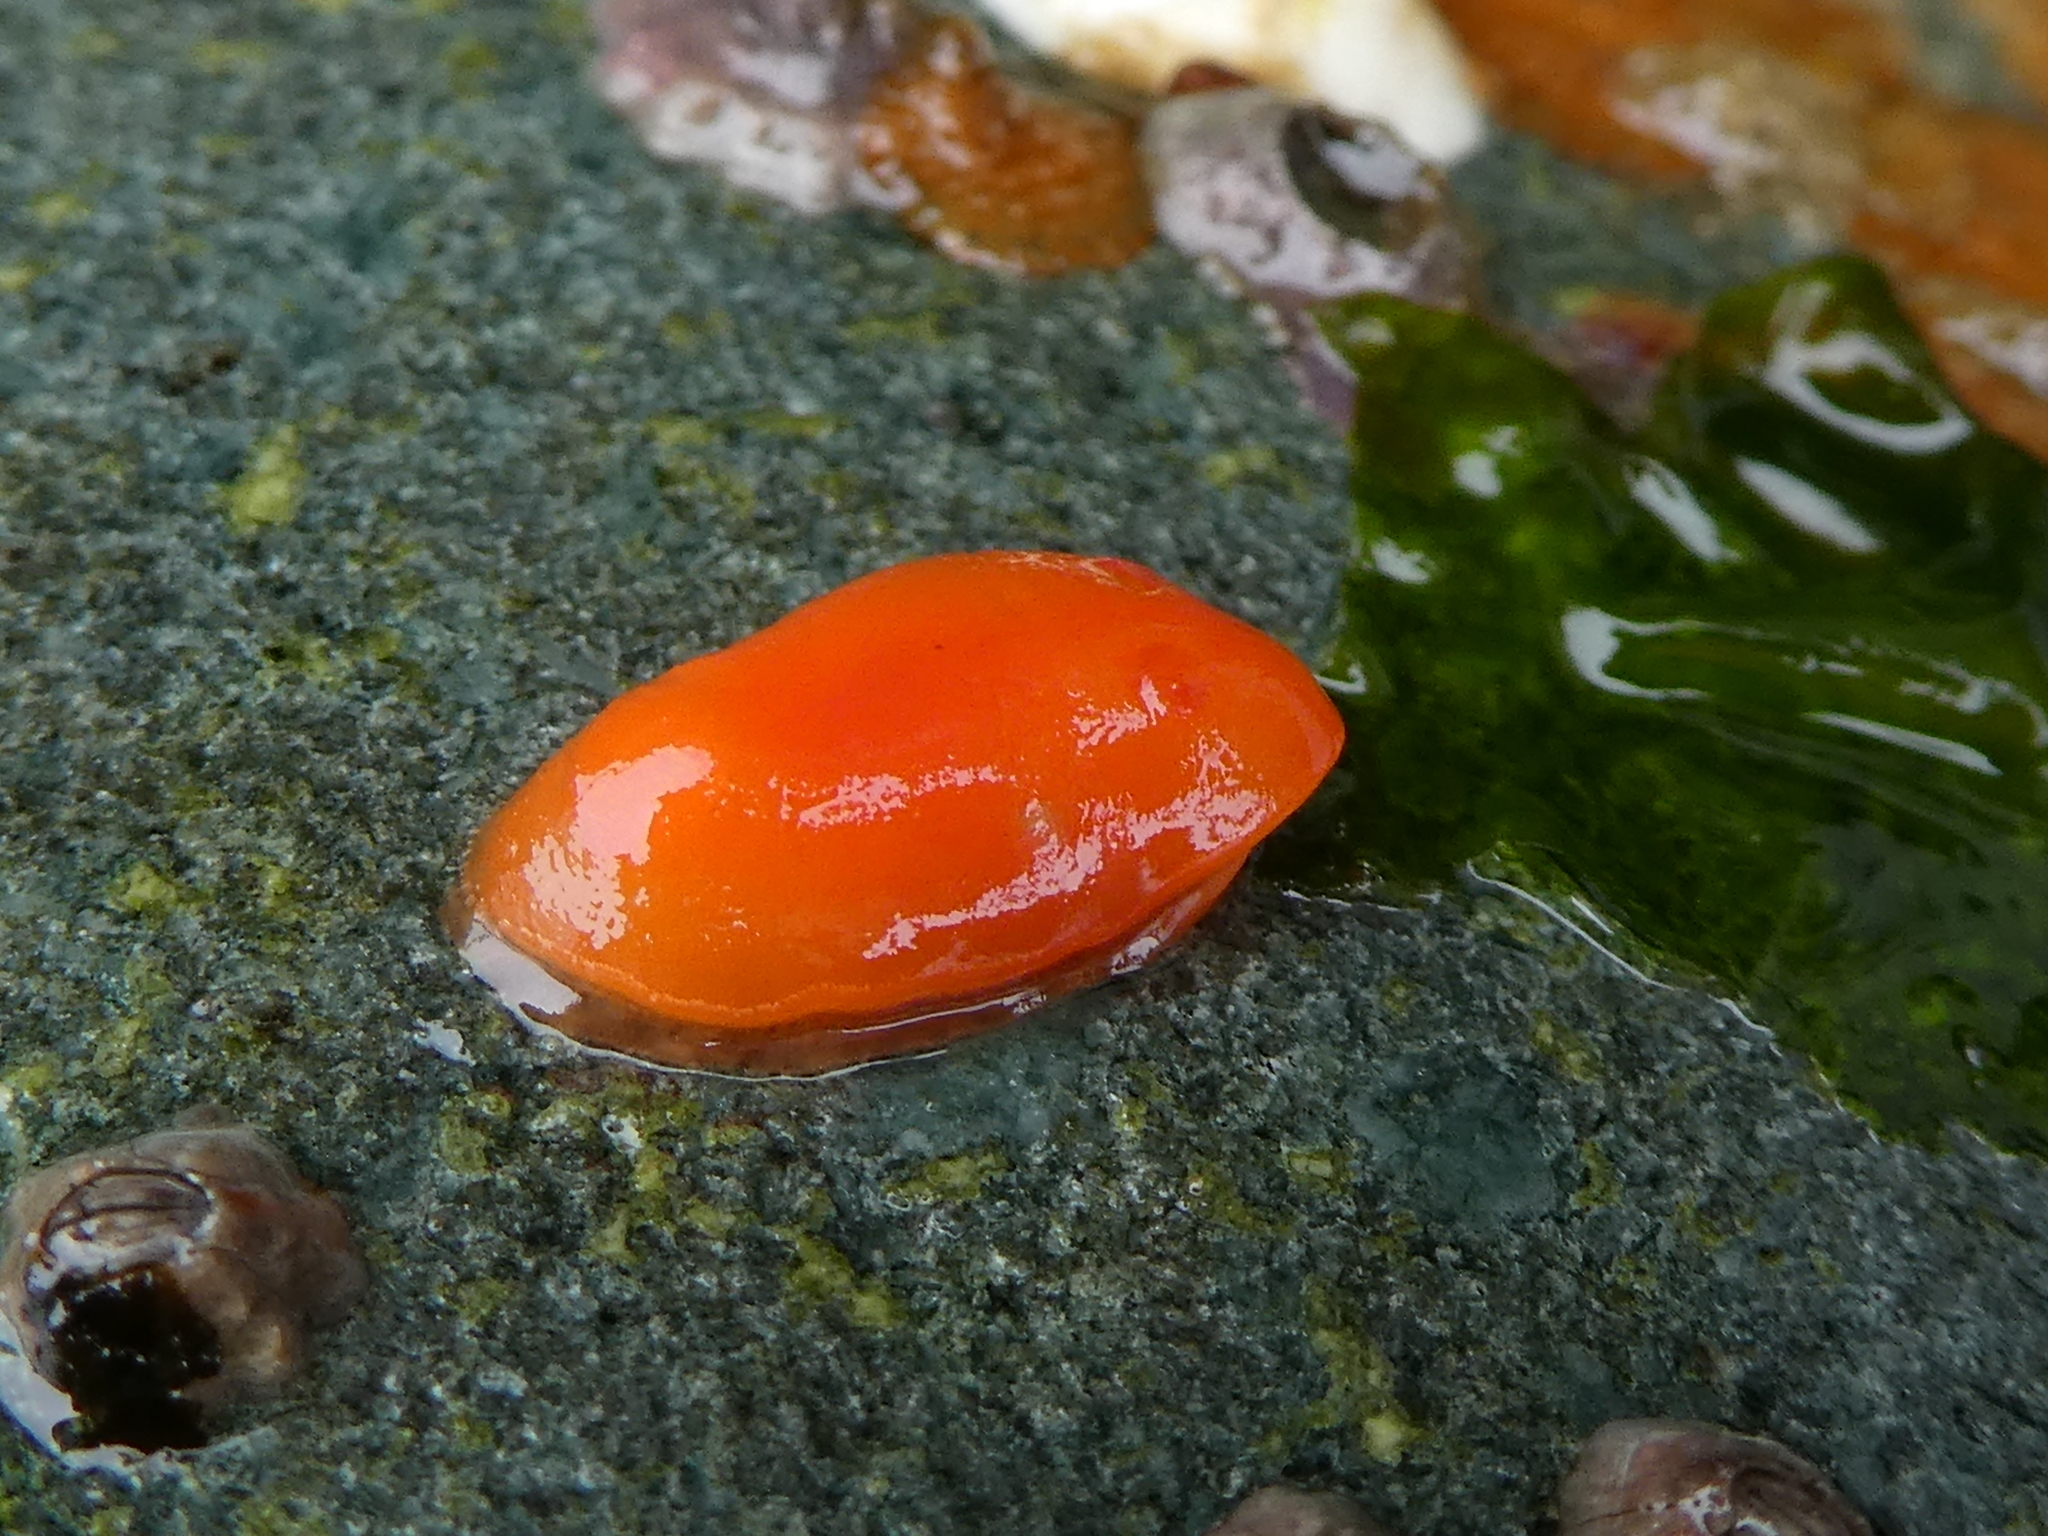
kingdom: Animalia
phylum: Mollusca
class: Gastropoda
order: Nudibranchia
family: Discodorididae
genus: Rostanga
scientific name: Rostanga pulchra
